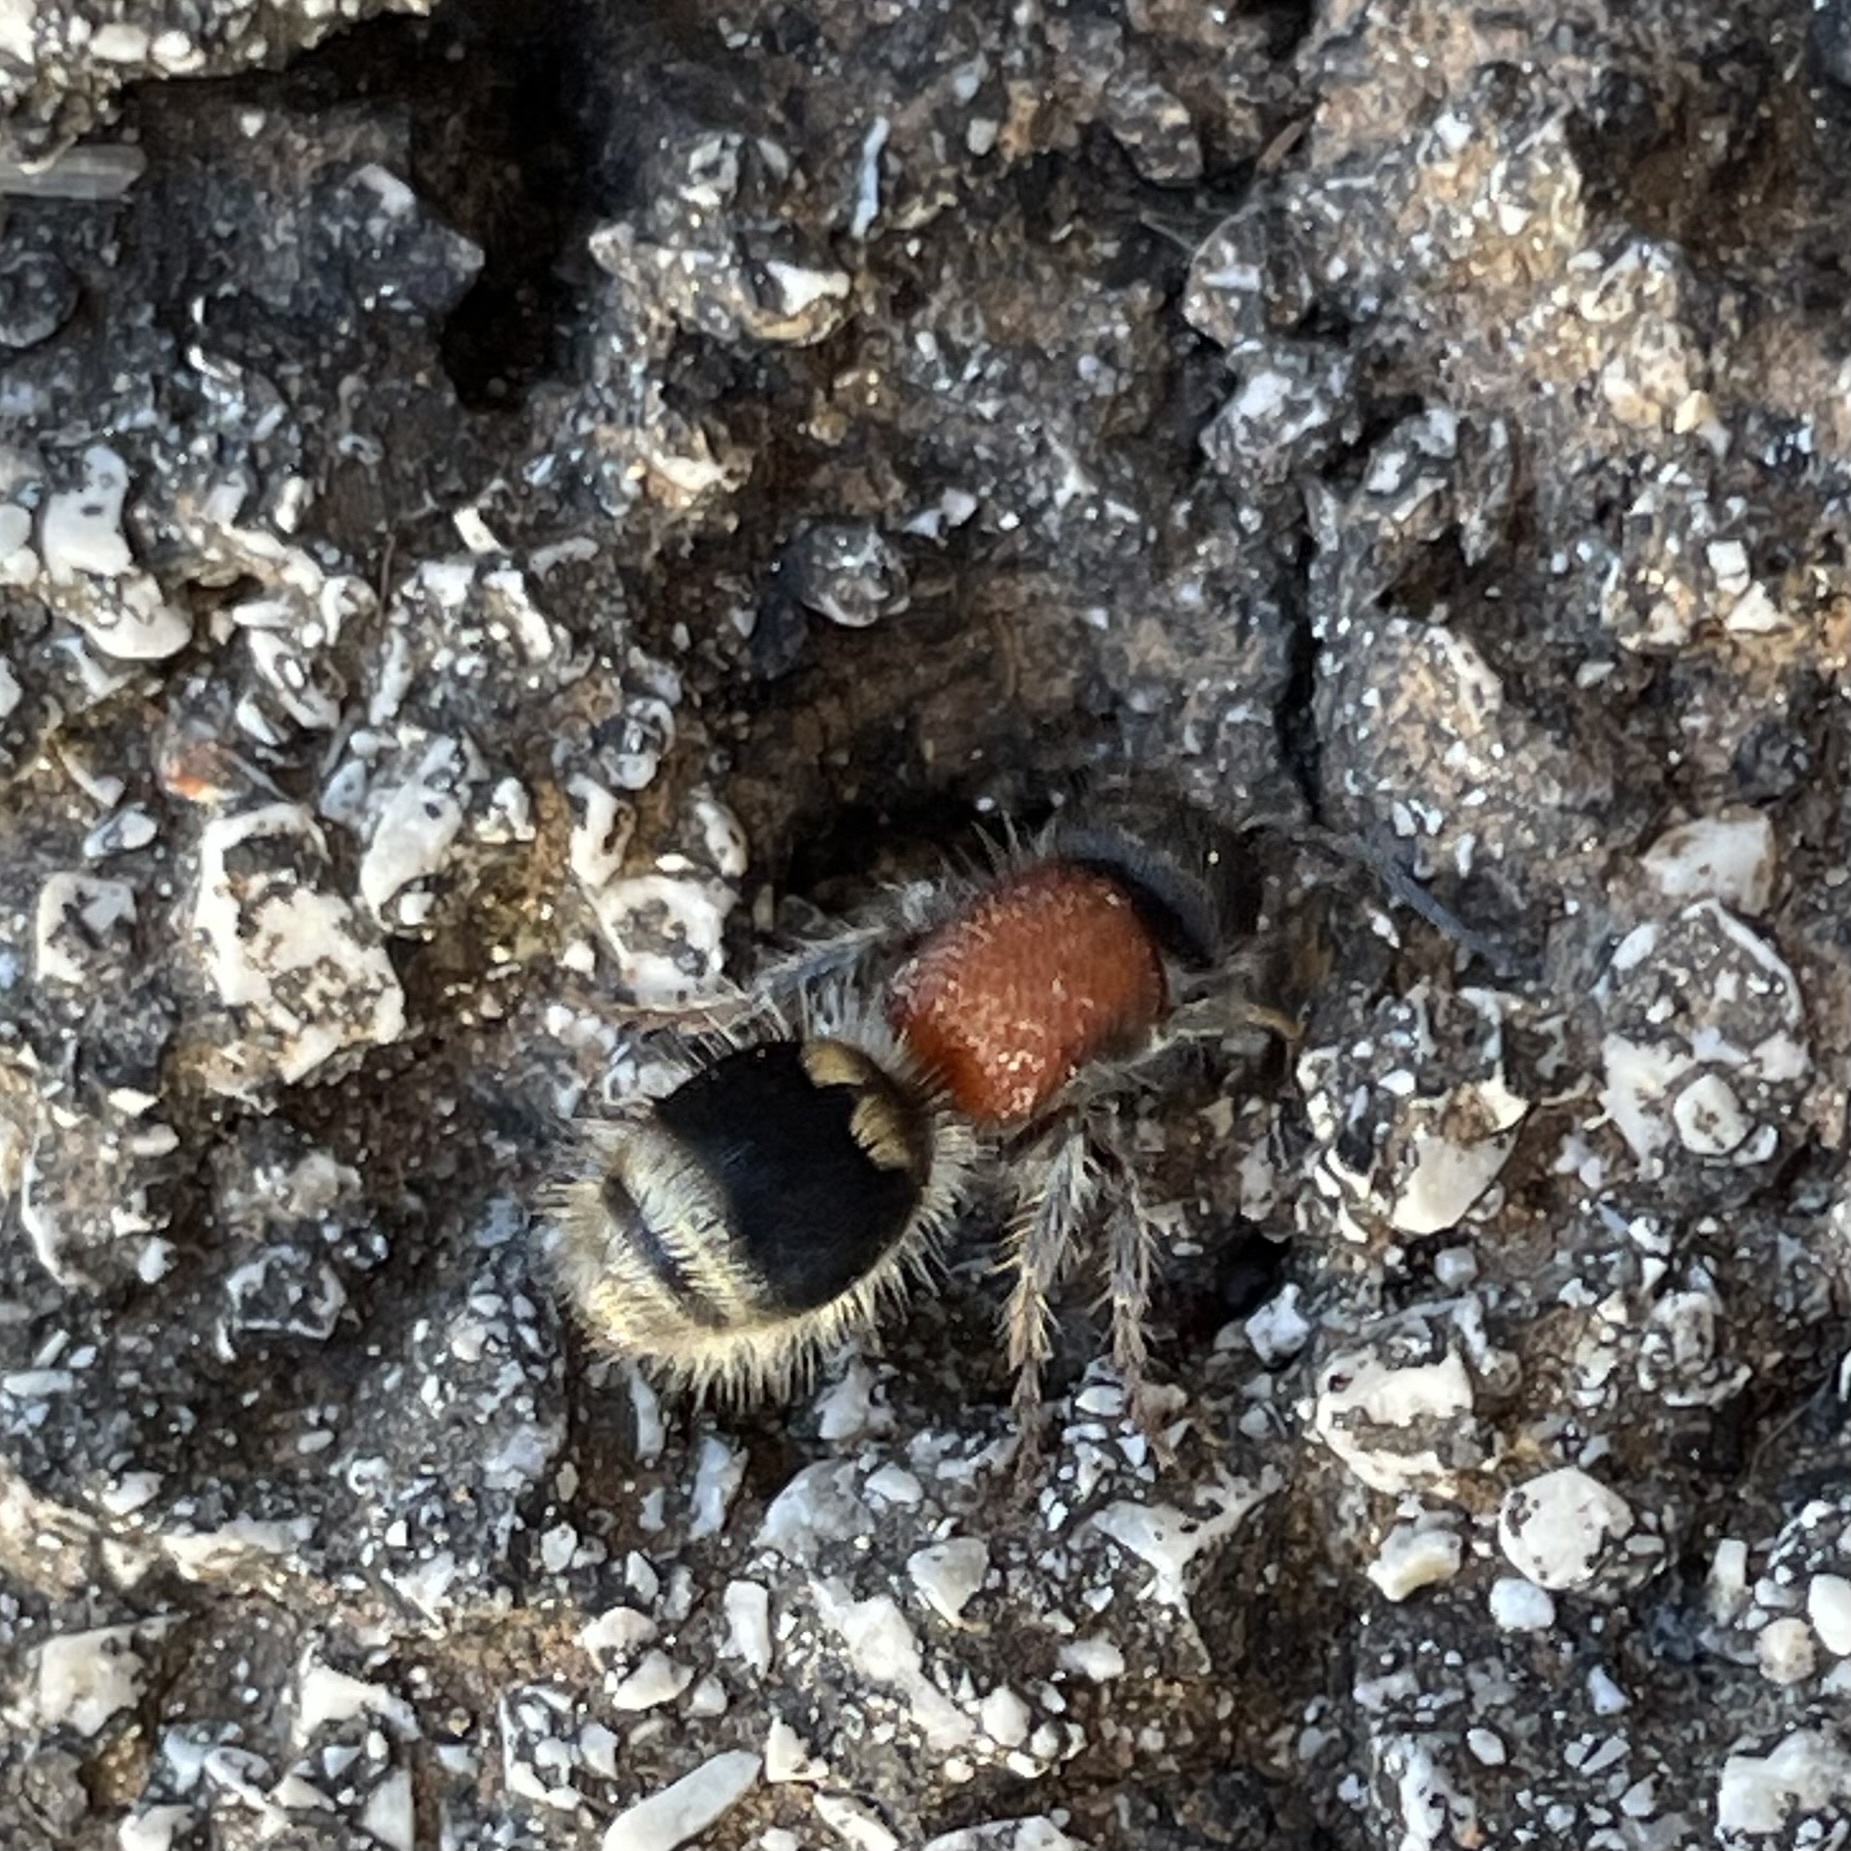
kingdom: Animalia
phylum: Arthropoda
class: Insecta
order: Hymenoptera
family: Mutillidae
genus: Tropidotilla
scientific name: Tropidotilla litoralis
